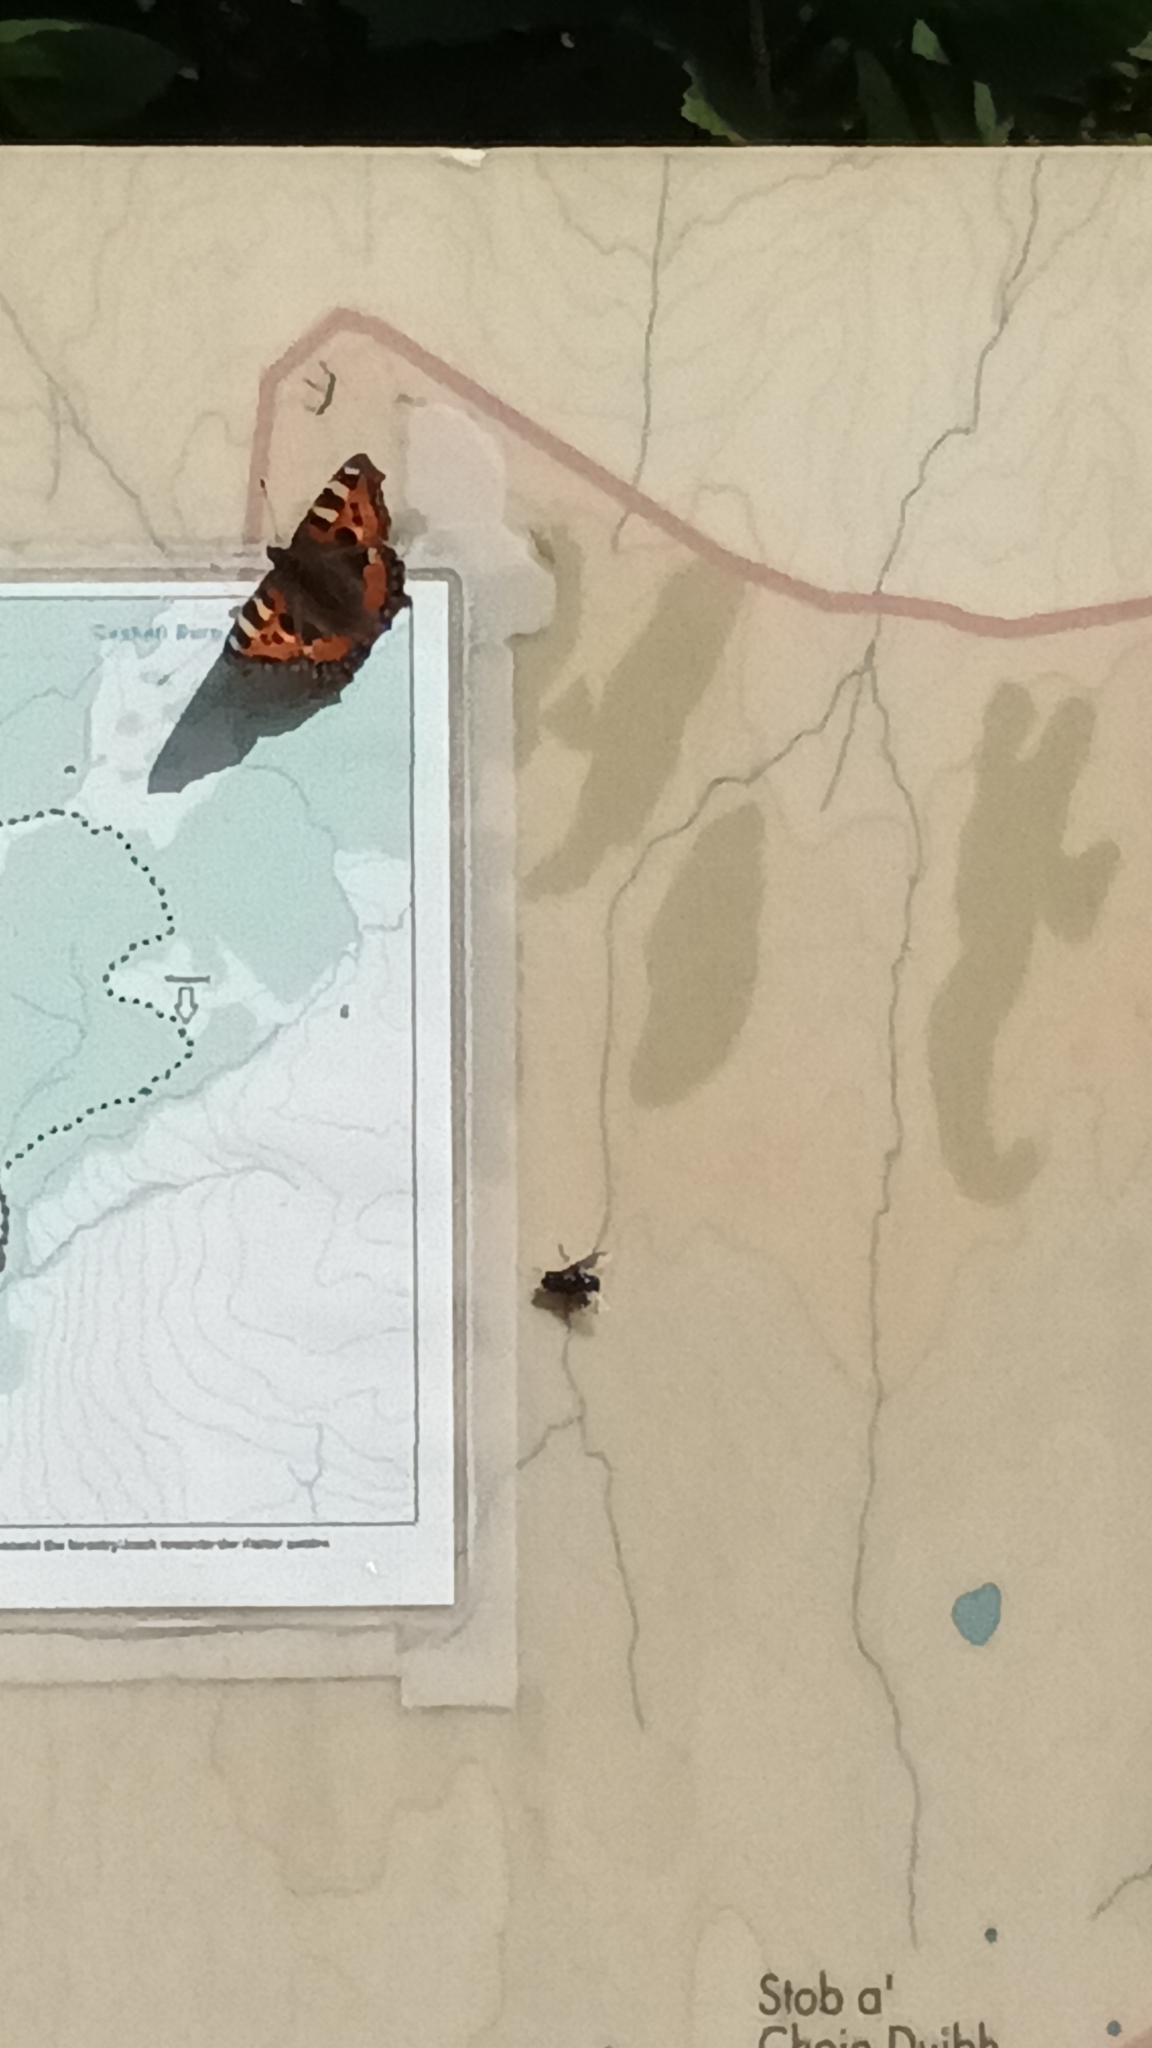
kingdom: Animalia
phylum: Arthropoda
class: Insecta
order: Lepidoptera
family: Nymphalidae
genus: Aglais
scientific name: Aglais urticae
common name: Small tortoiseshell
